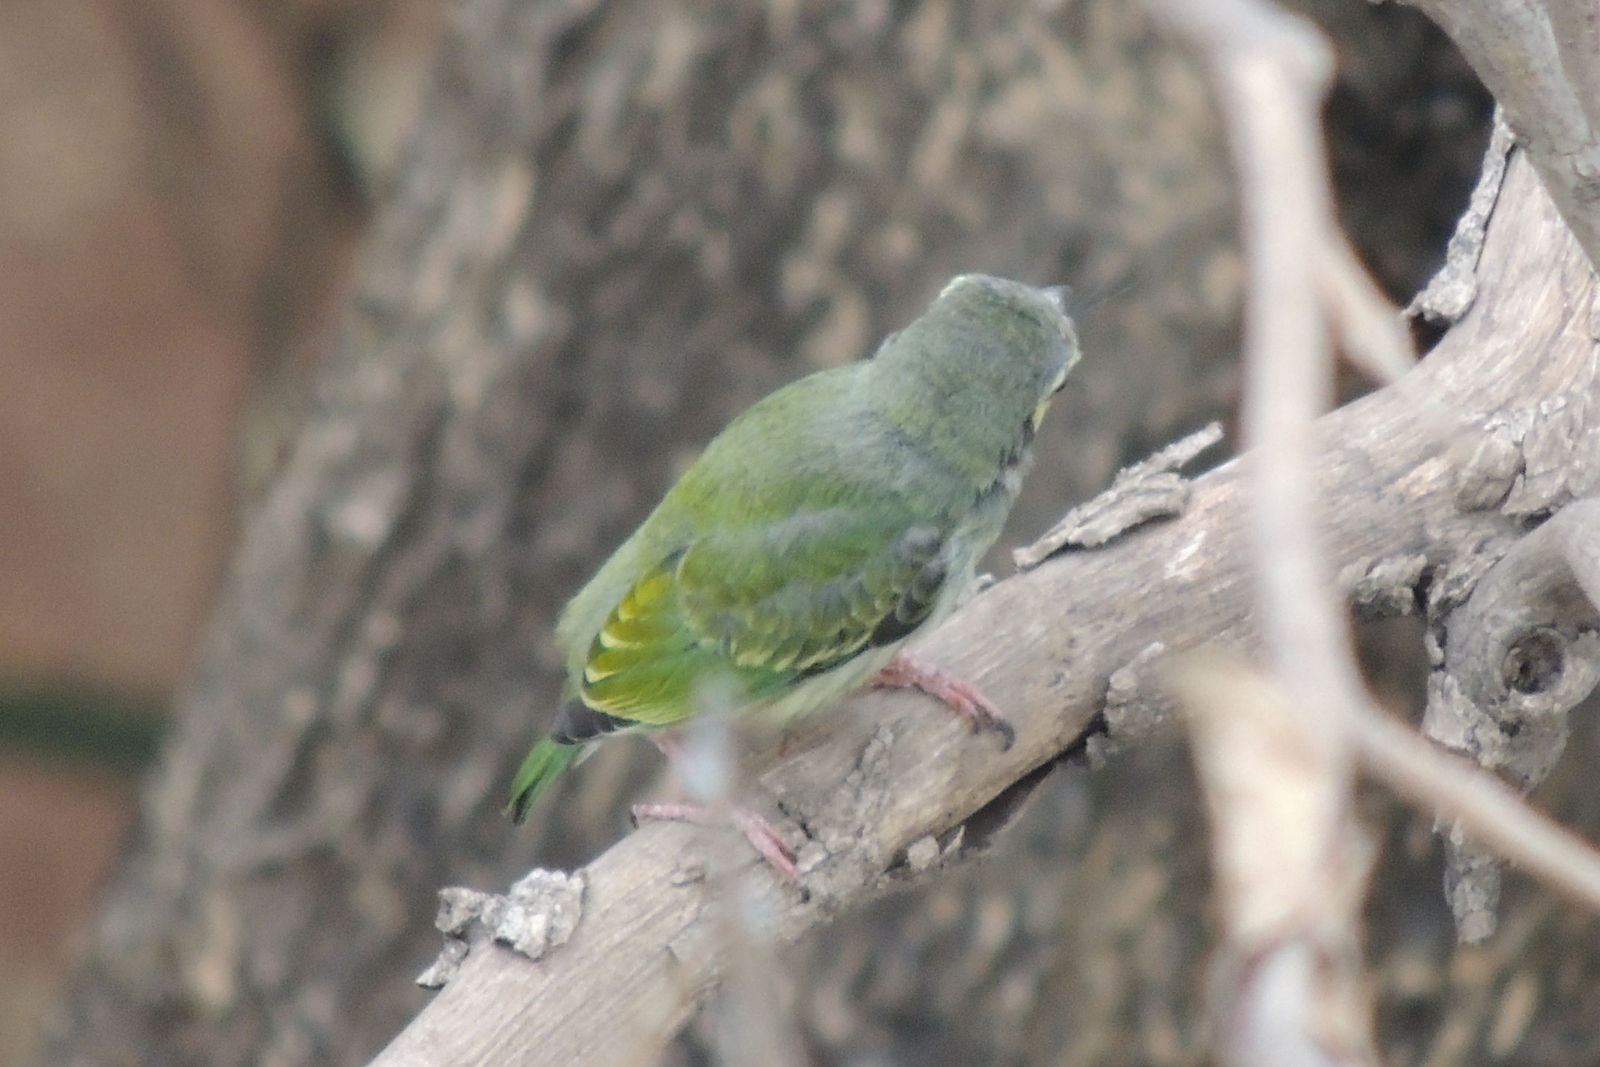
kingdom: Animalia
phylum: Chordata
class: Aves
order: Piciformes
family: Megalaimidae
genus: Psilopogon
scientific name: Psilopogon haemacephalus
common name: Coppersmith barbet
